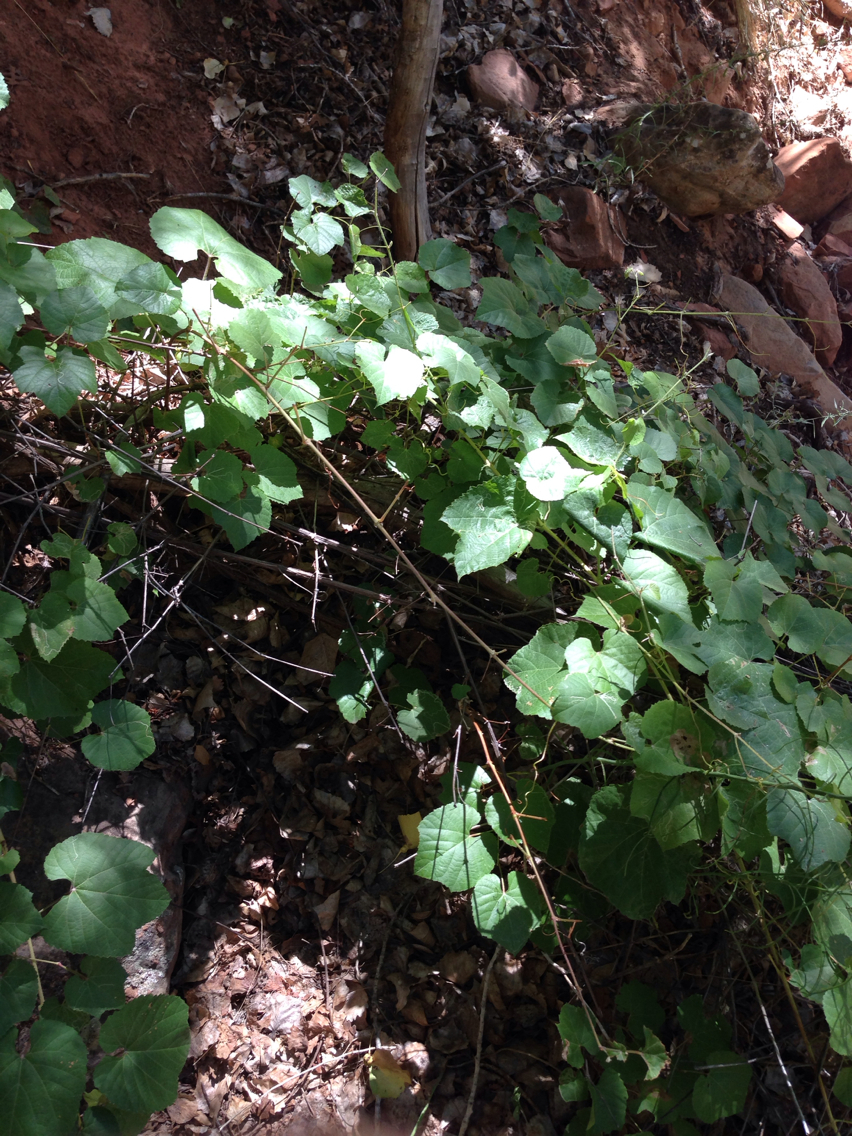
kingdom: Plantae
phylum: Tracheophyta
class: Magnoliopsida
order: Vitales
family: Vitaceae
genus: Vitis
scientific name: Vitis arizonica
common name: Canyon grape
